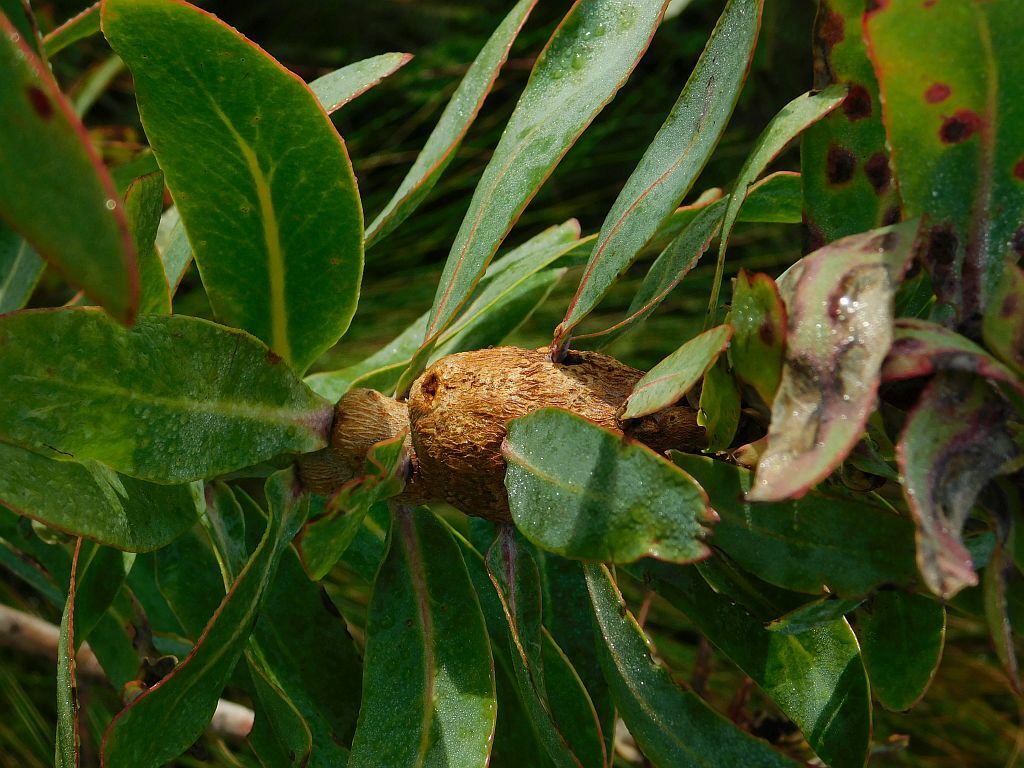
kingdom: Plantae
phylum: Tracheophyta
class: Magnoliopsida
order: Proteales
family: Proteaceae
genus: Protea
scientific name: Protea nitida
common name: Tree protea
